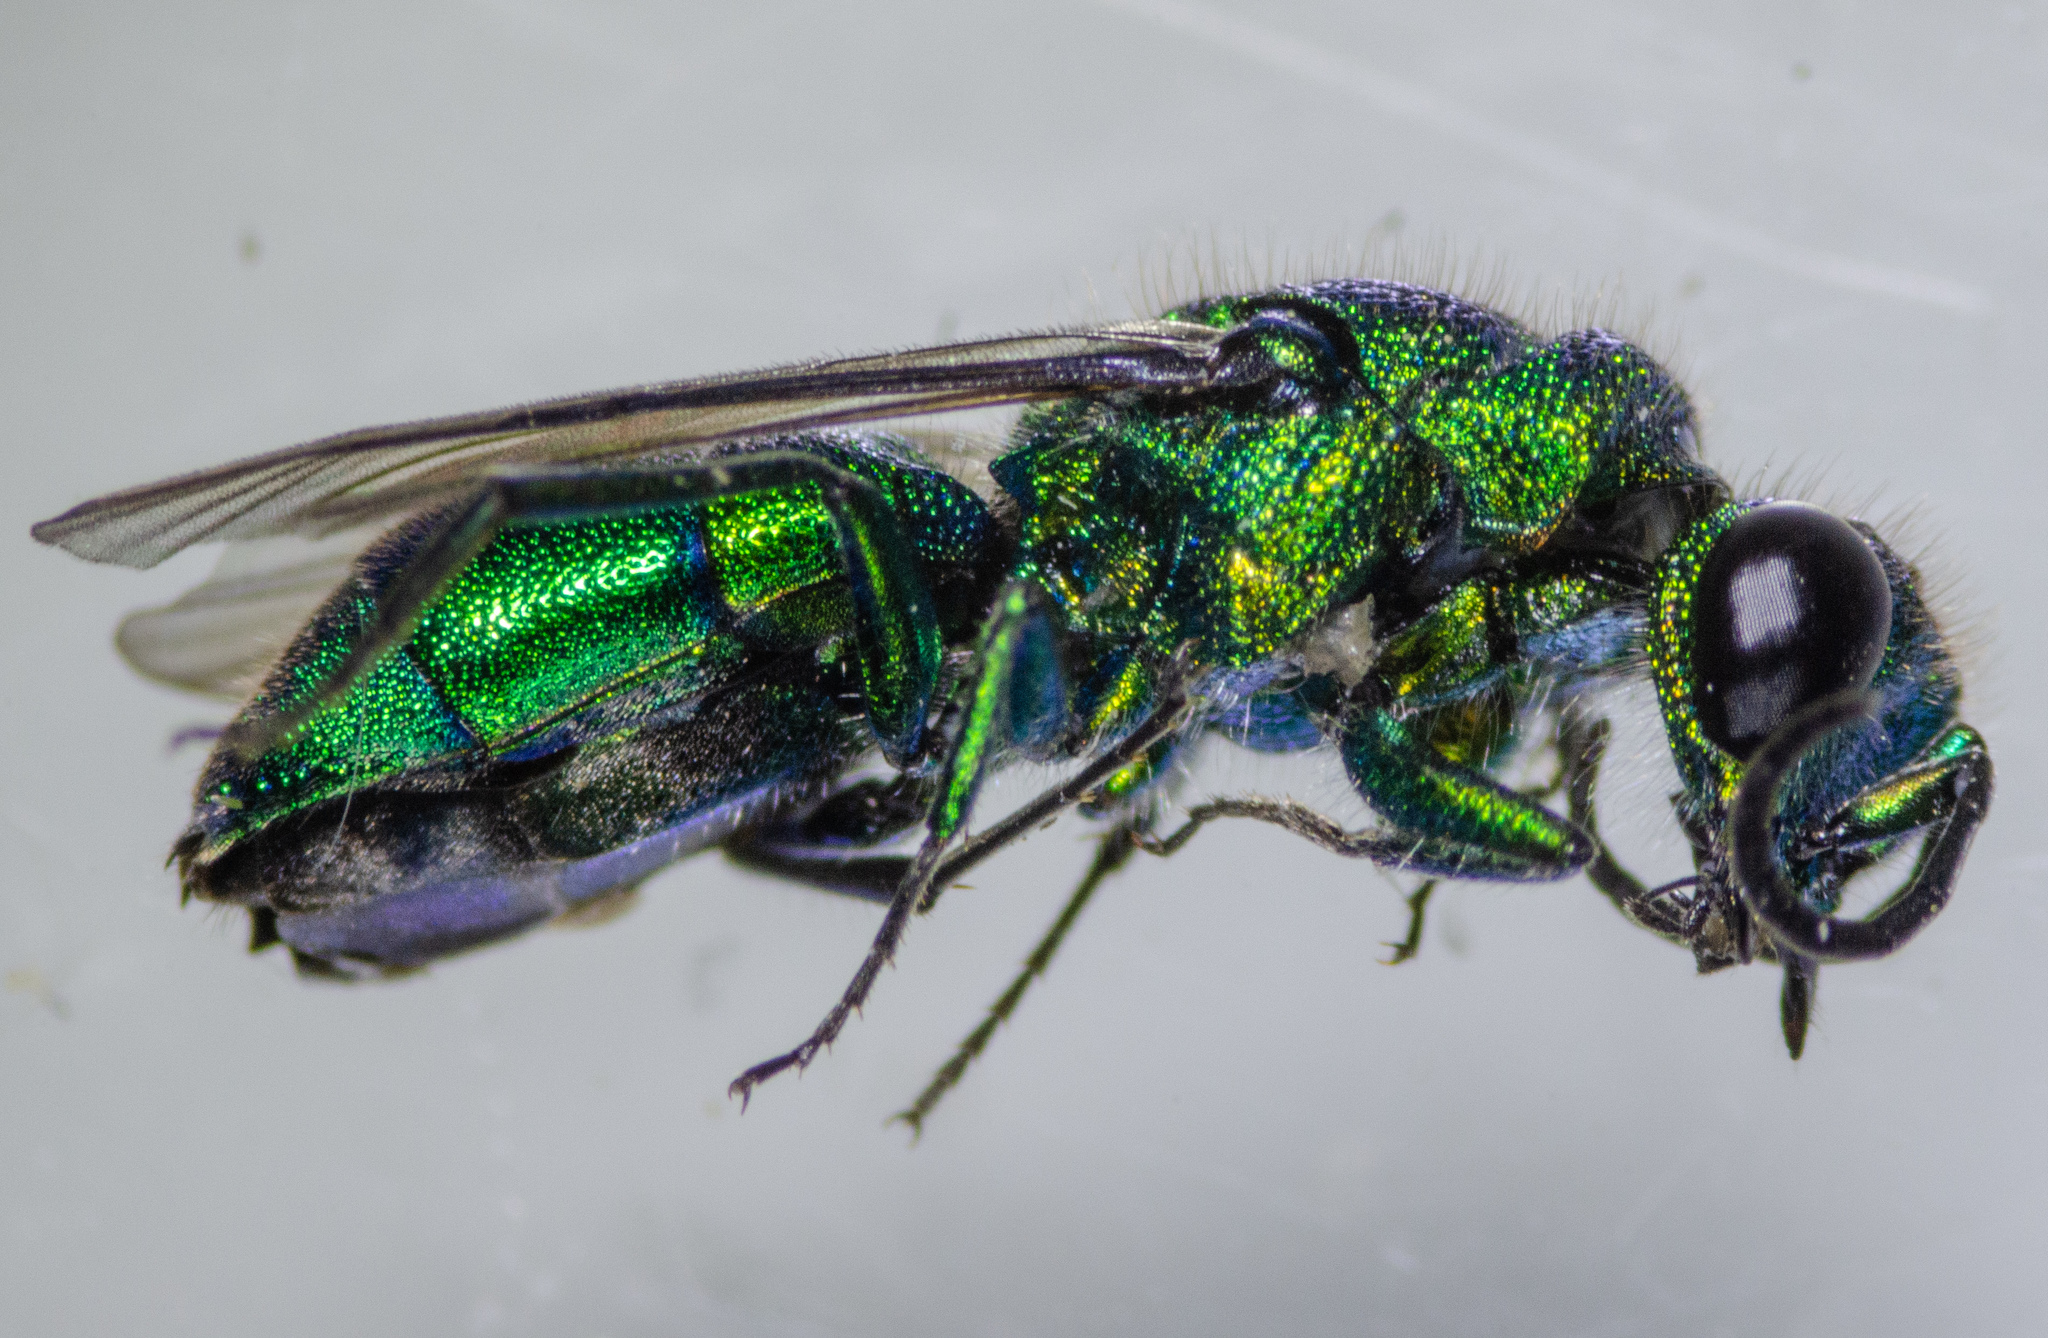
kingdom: Animalia
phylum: Arthropoda
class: Insecta
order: Hymenoptera
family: Chrysididae
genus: Chrysis
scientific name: Chrysis
